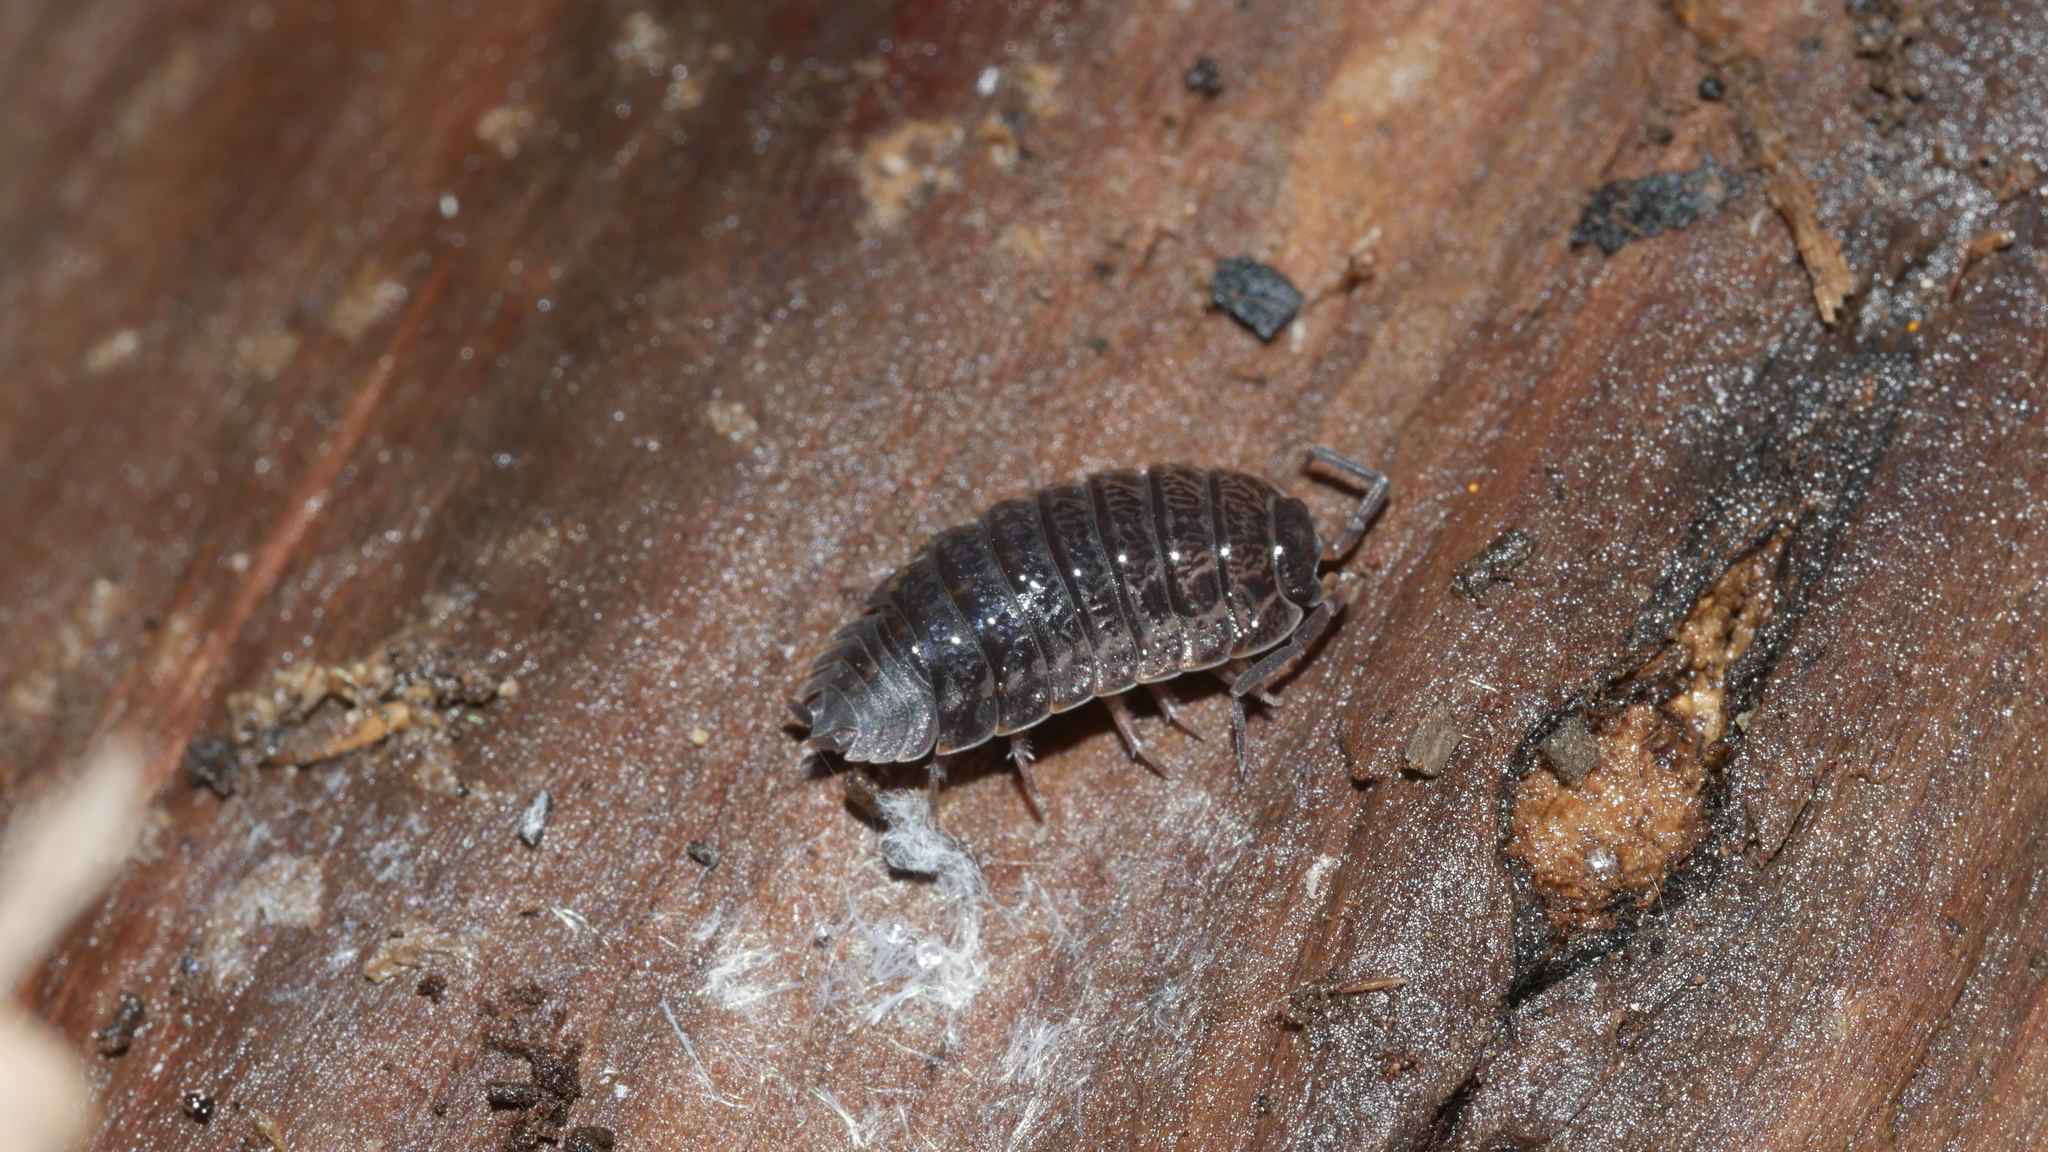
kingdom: Animalia
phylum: Arthropoda
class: Malacostraca
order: Isopoda
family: Trachelipodidae
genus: Trachelipus
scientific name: Trachelipus rathkii
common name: Isopod
